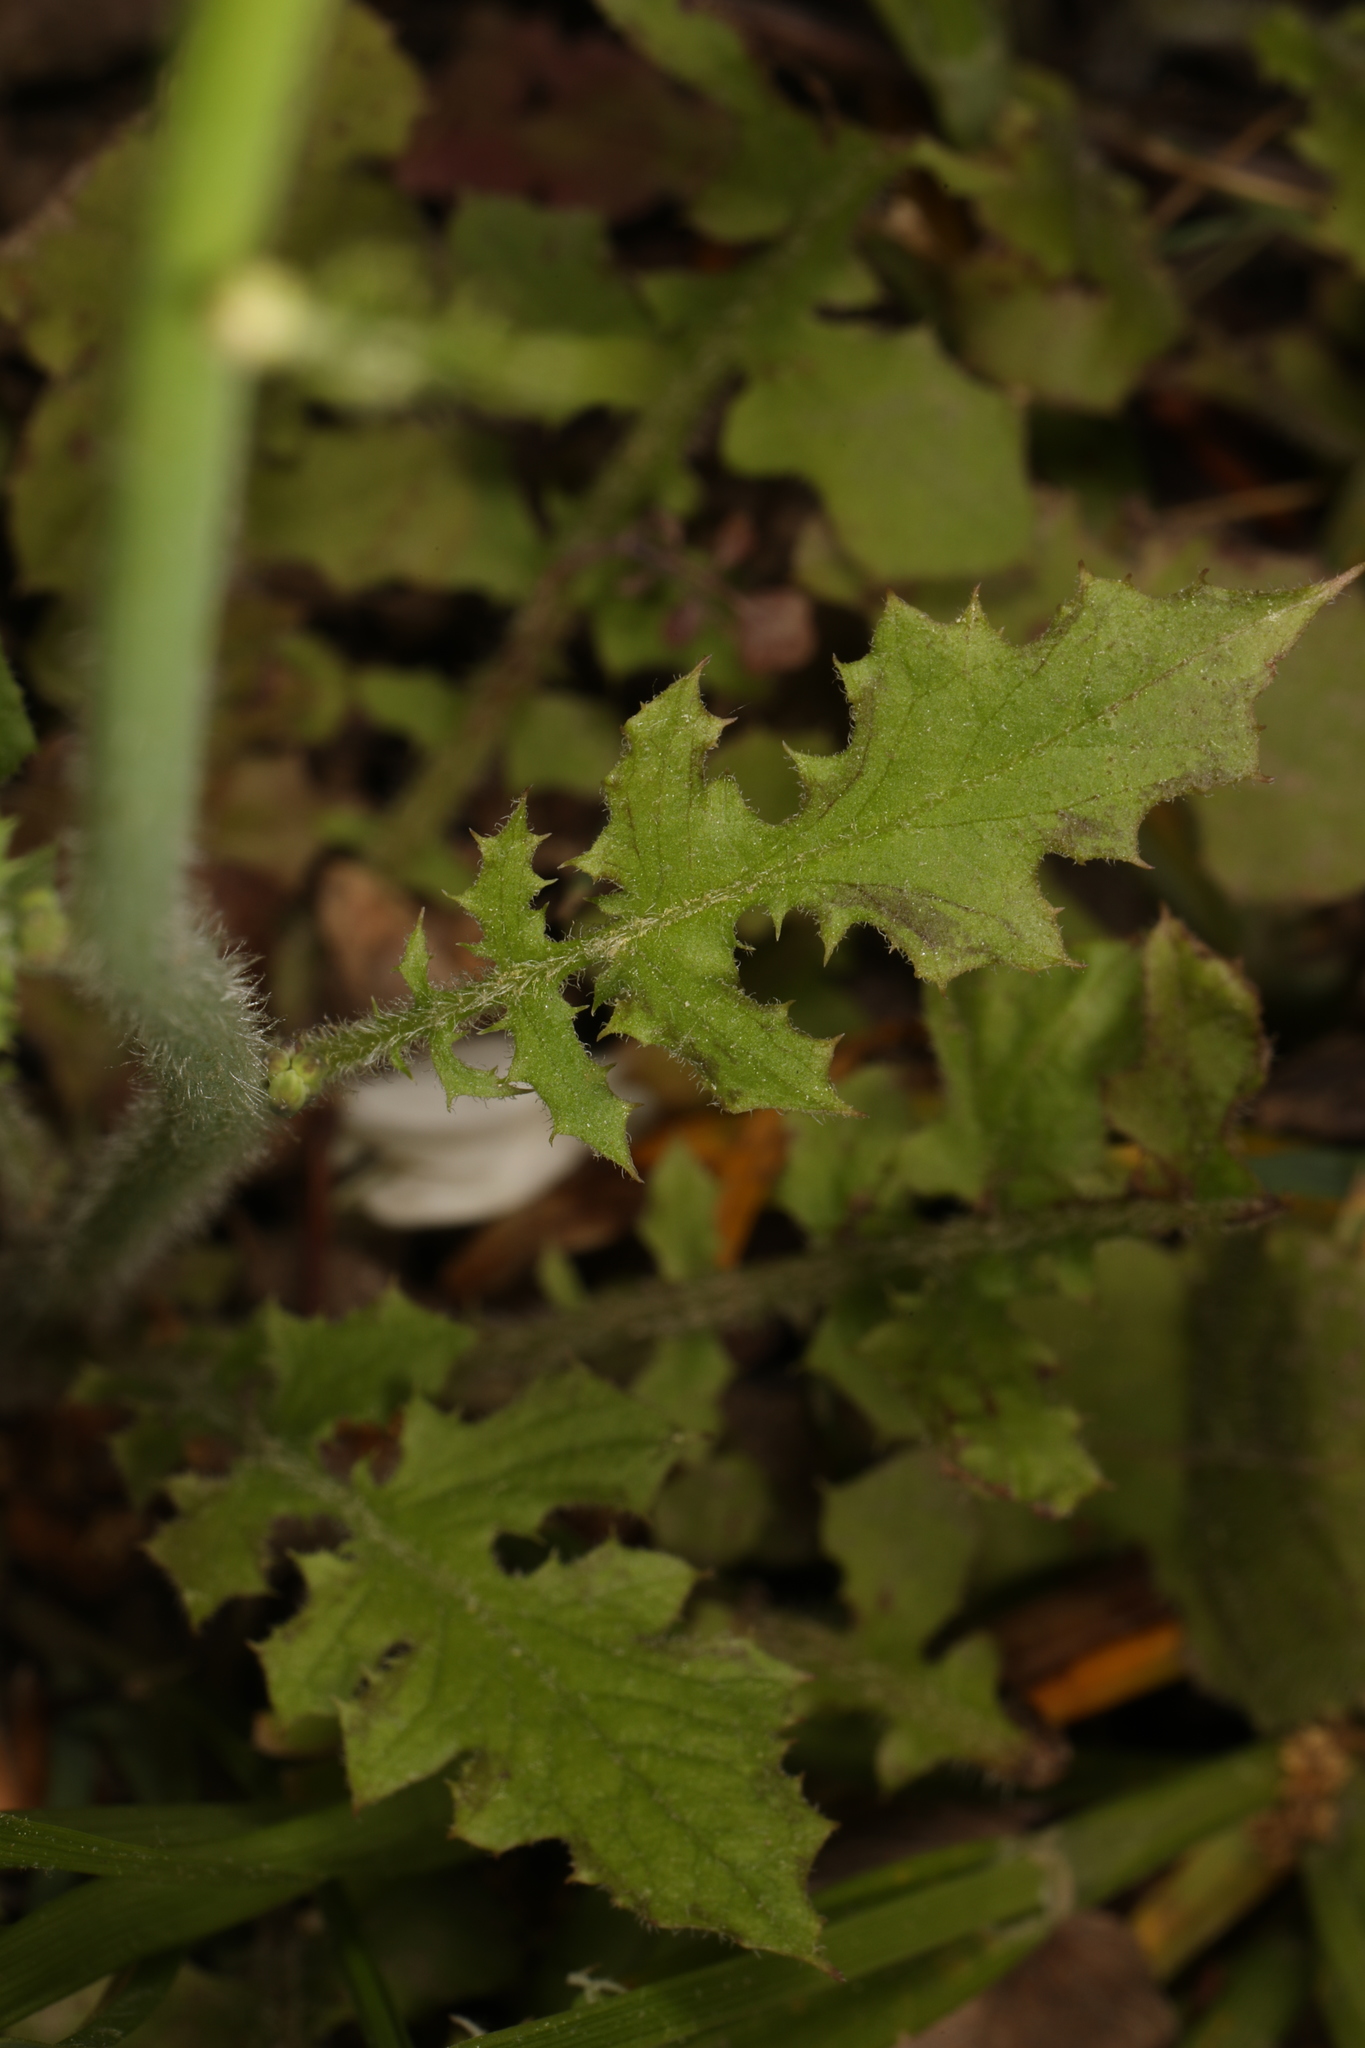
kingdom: Plantae
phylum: Tracheophyta
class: Magnoliopsida
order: Asterales
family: Asteraceae
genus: Youngia
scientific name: Youngia japonica
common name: Oriental false hawksbeard
